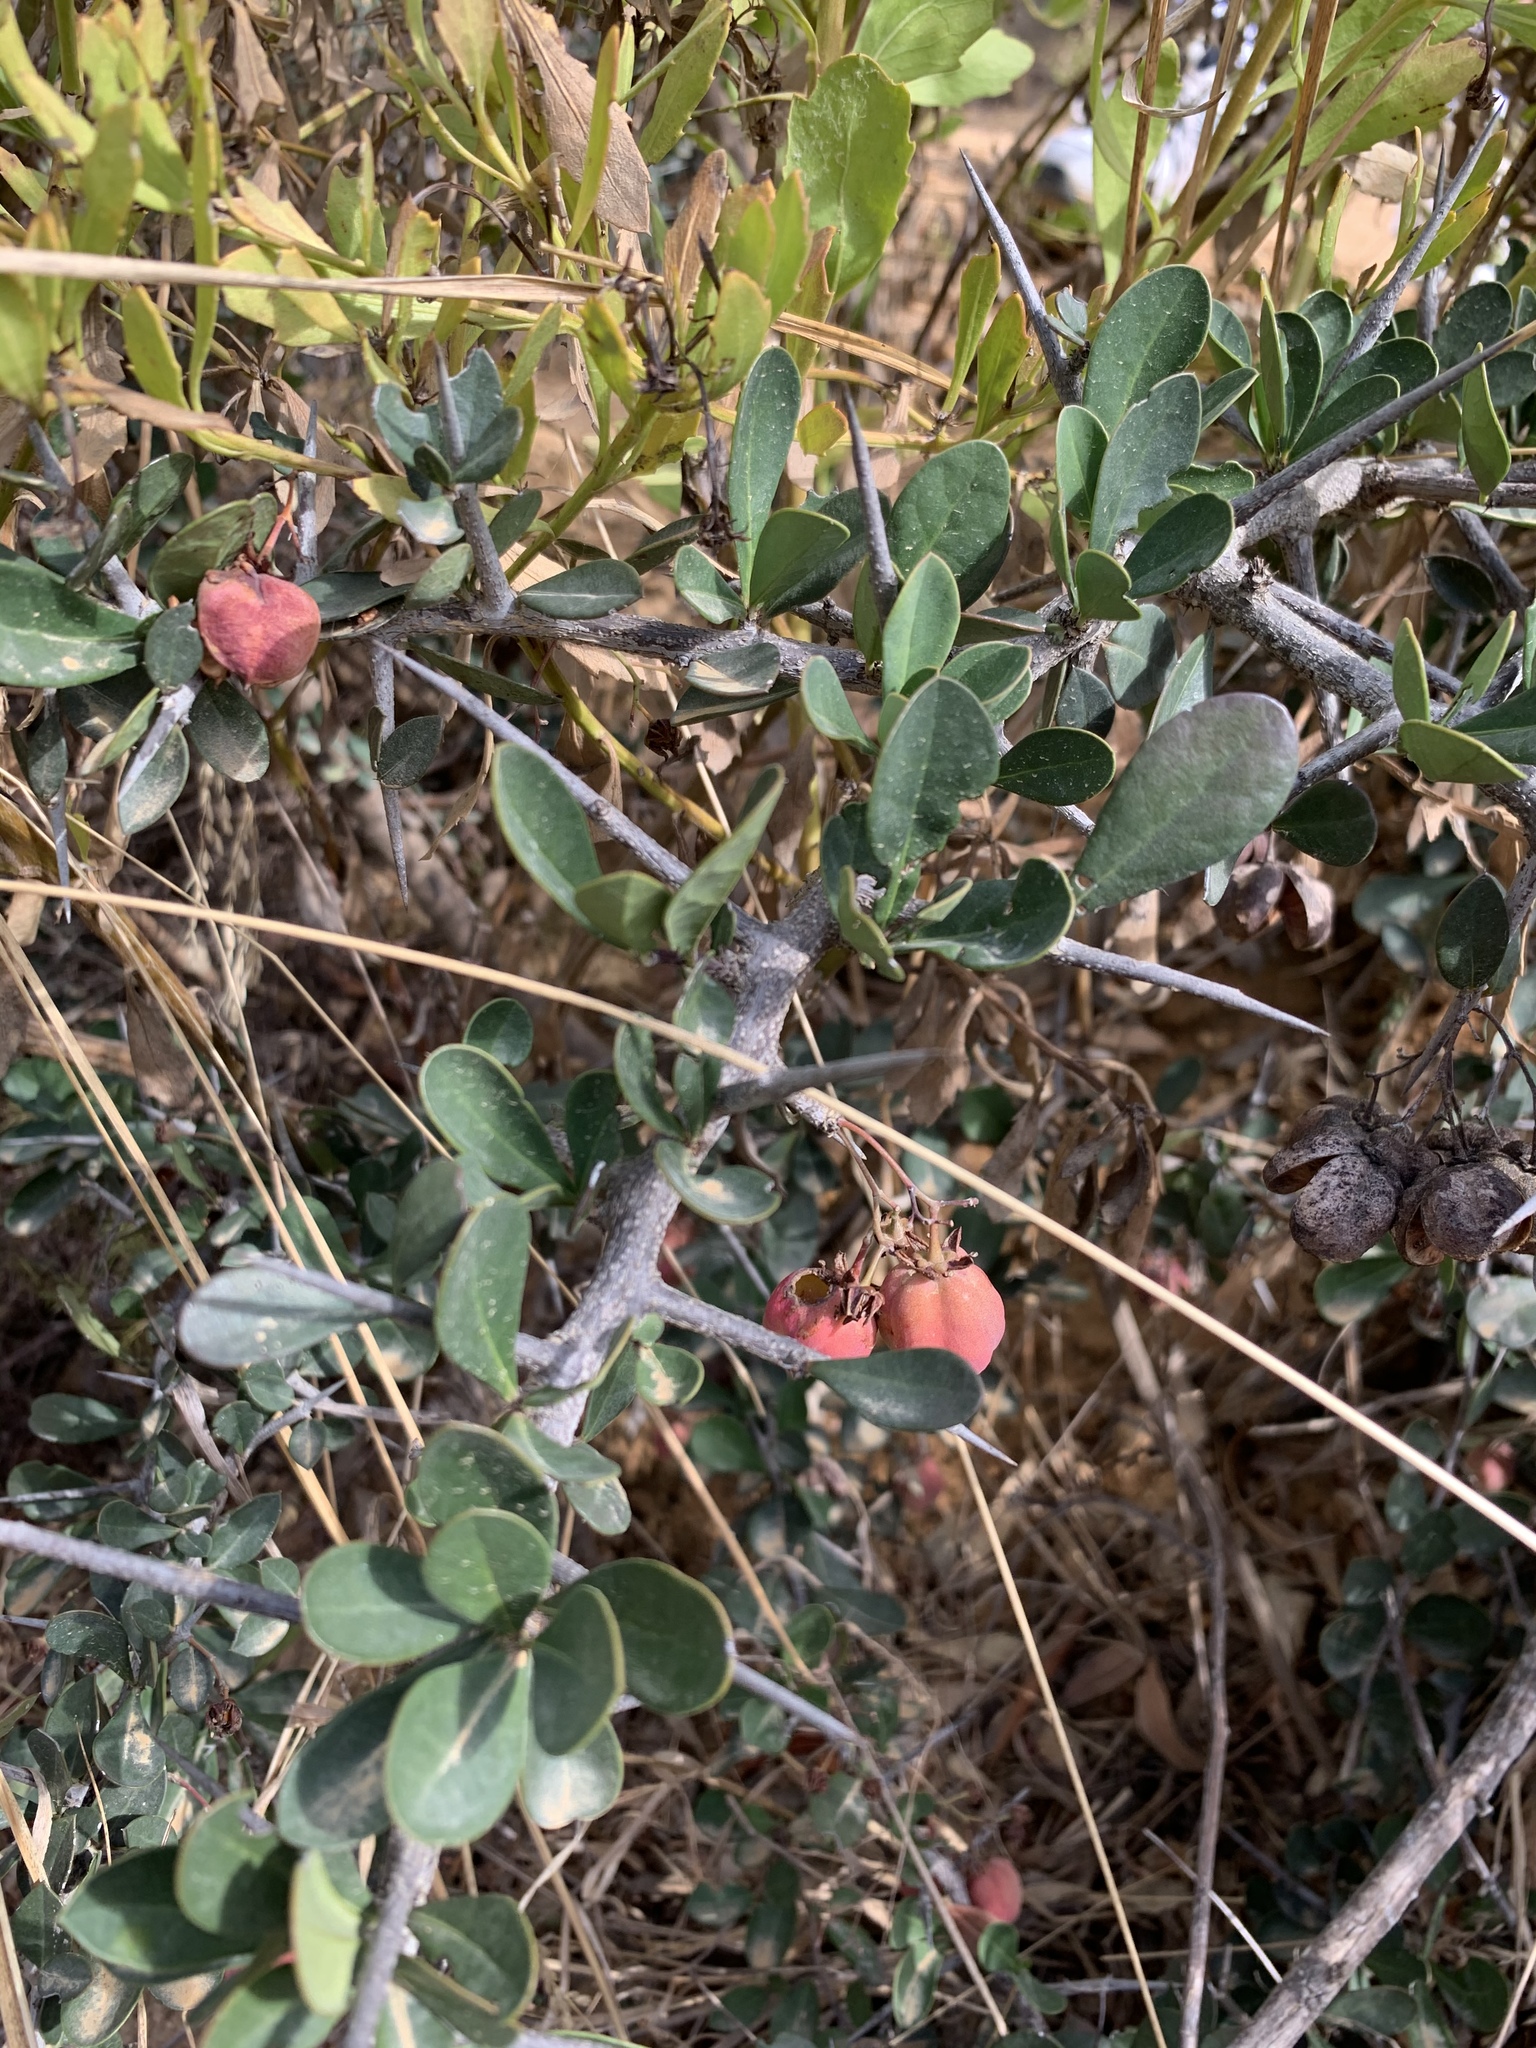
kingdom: Plantae
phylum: Tracheophyta
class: Magnoliopsida
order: Celastrales
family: Celastraceae
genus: Putterlickia
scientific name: Putterlickia pyracantha
